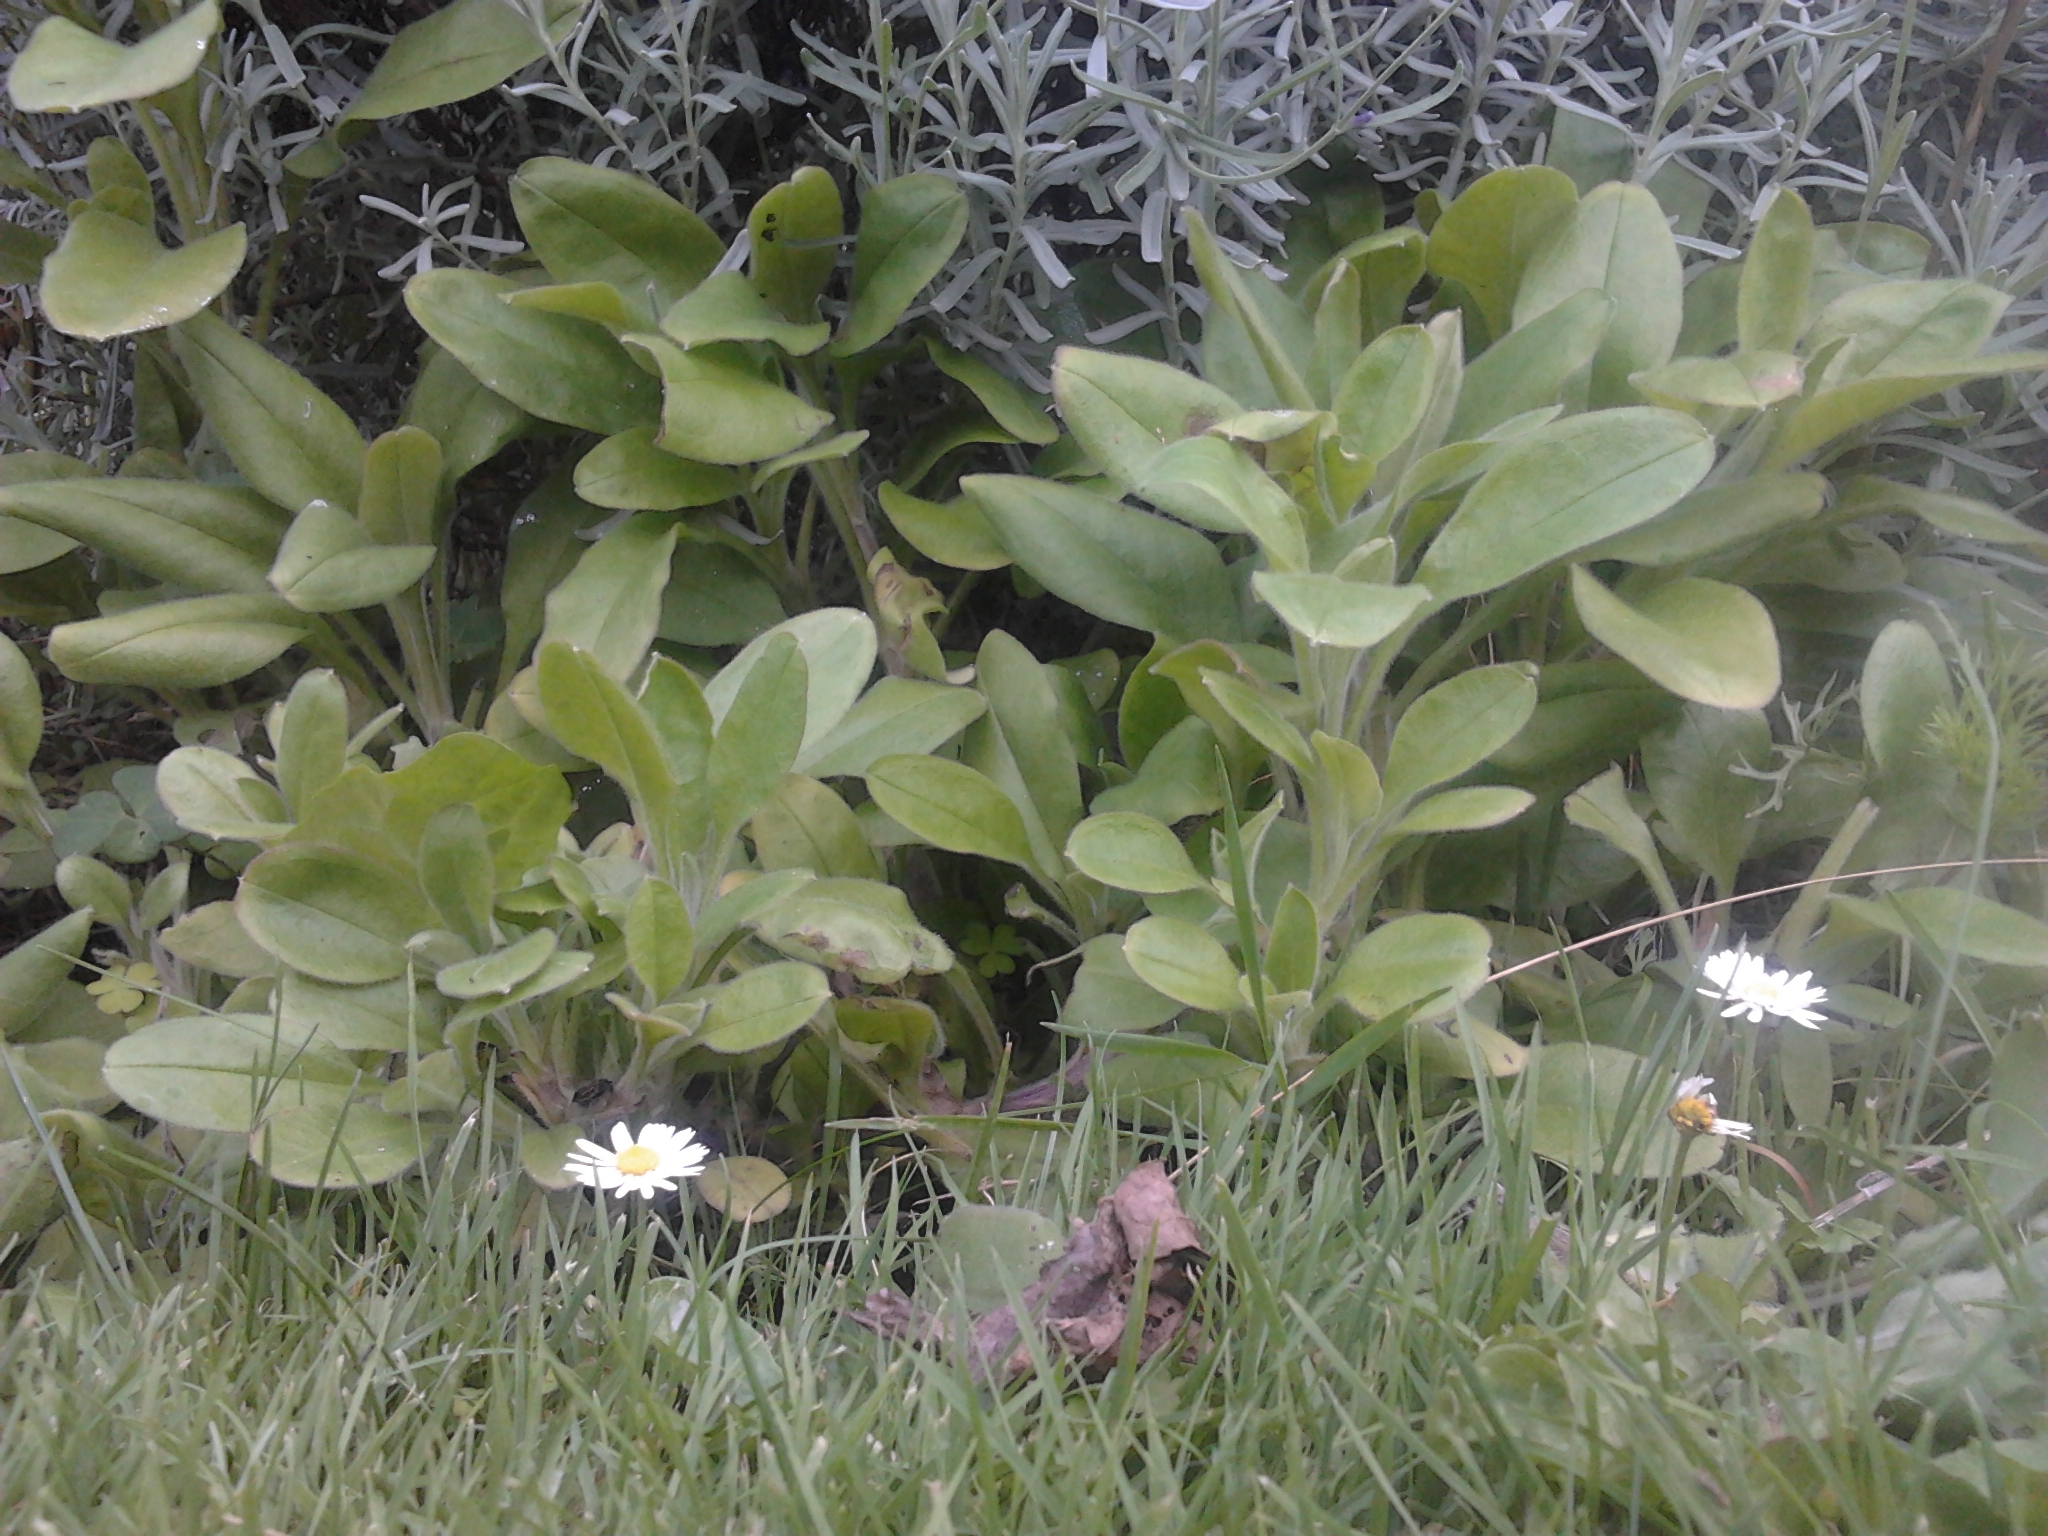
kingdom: Plantae
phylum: Tracheophyta
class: Magnoliopsida
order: Boraginales
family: Boraginaceae
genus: Myosotis
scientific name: Myosotis sylvatica
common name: Wood forget-me-not
